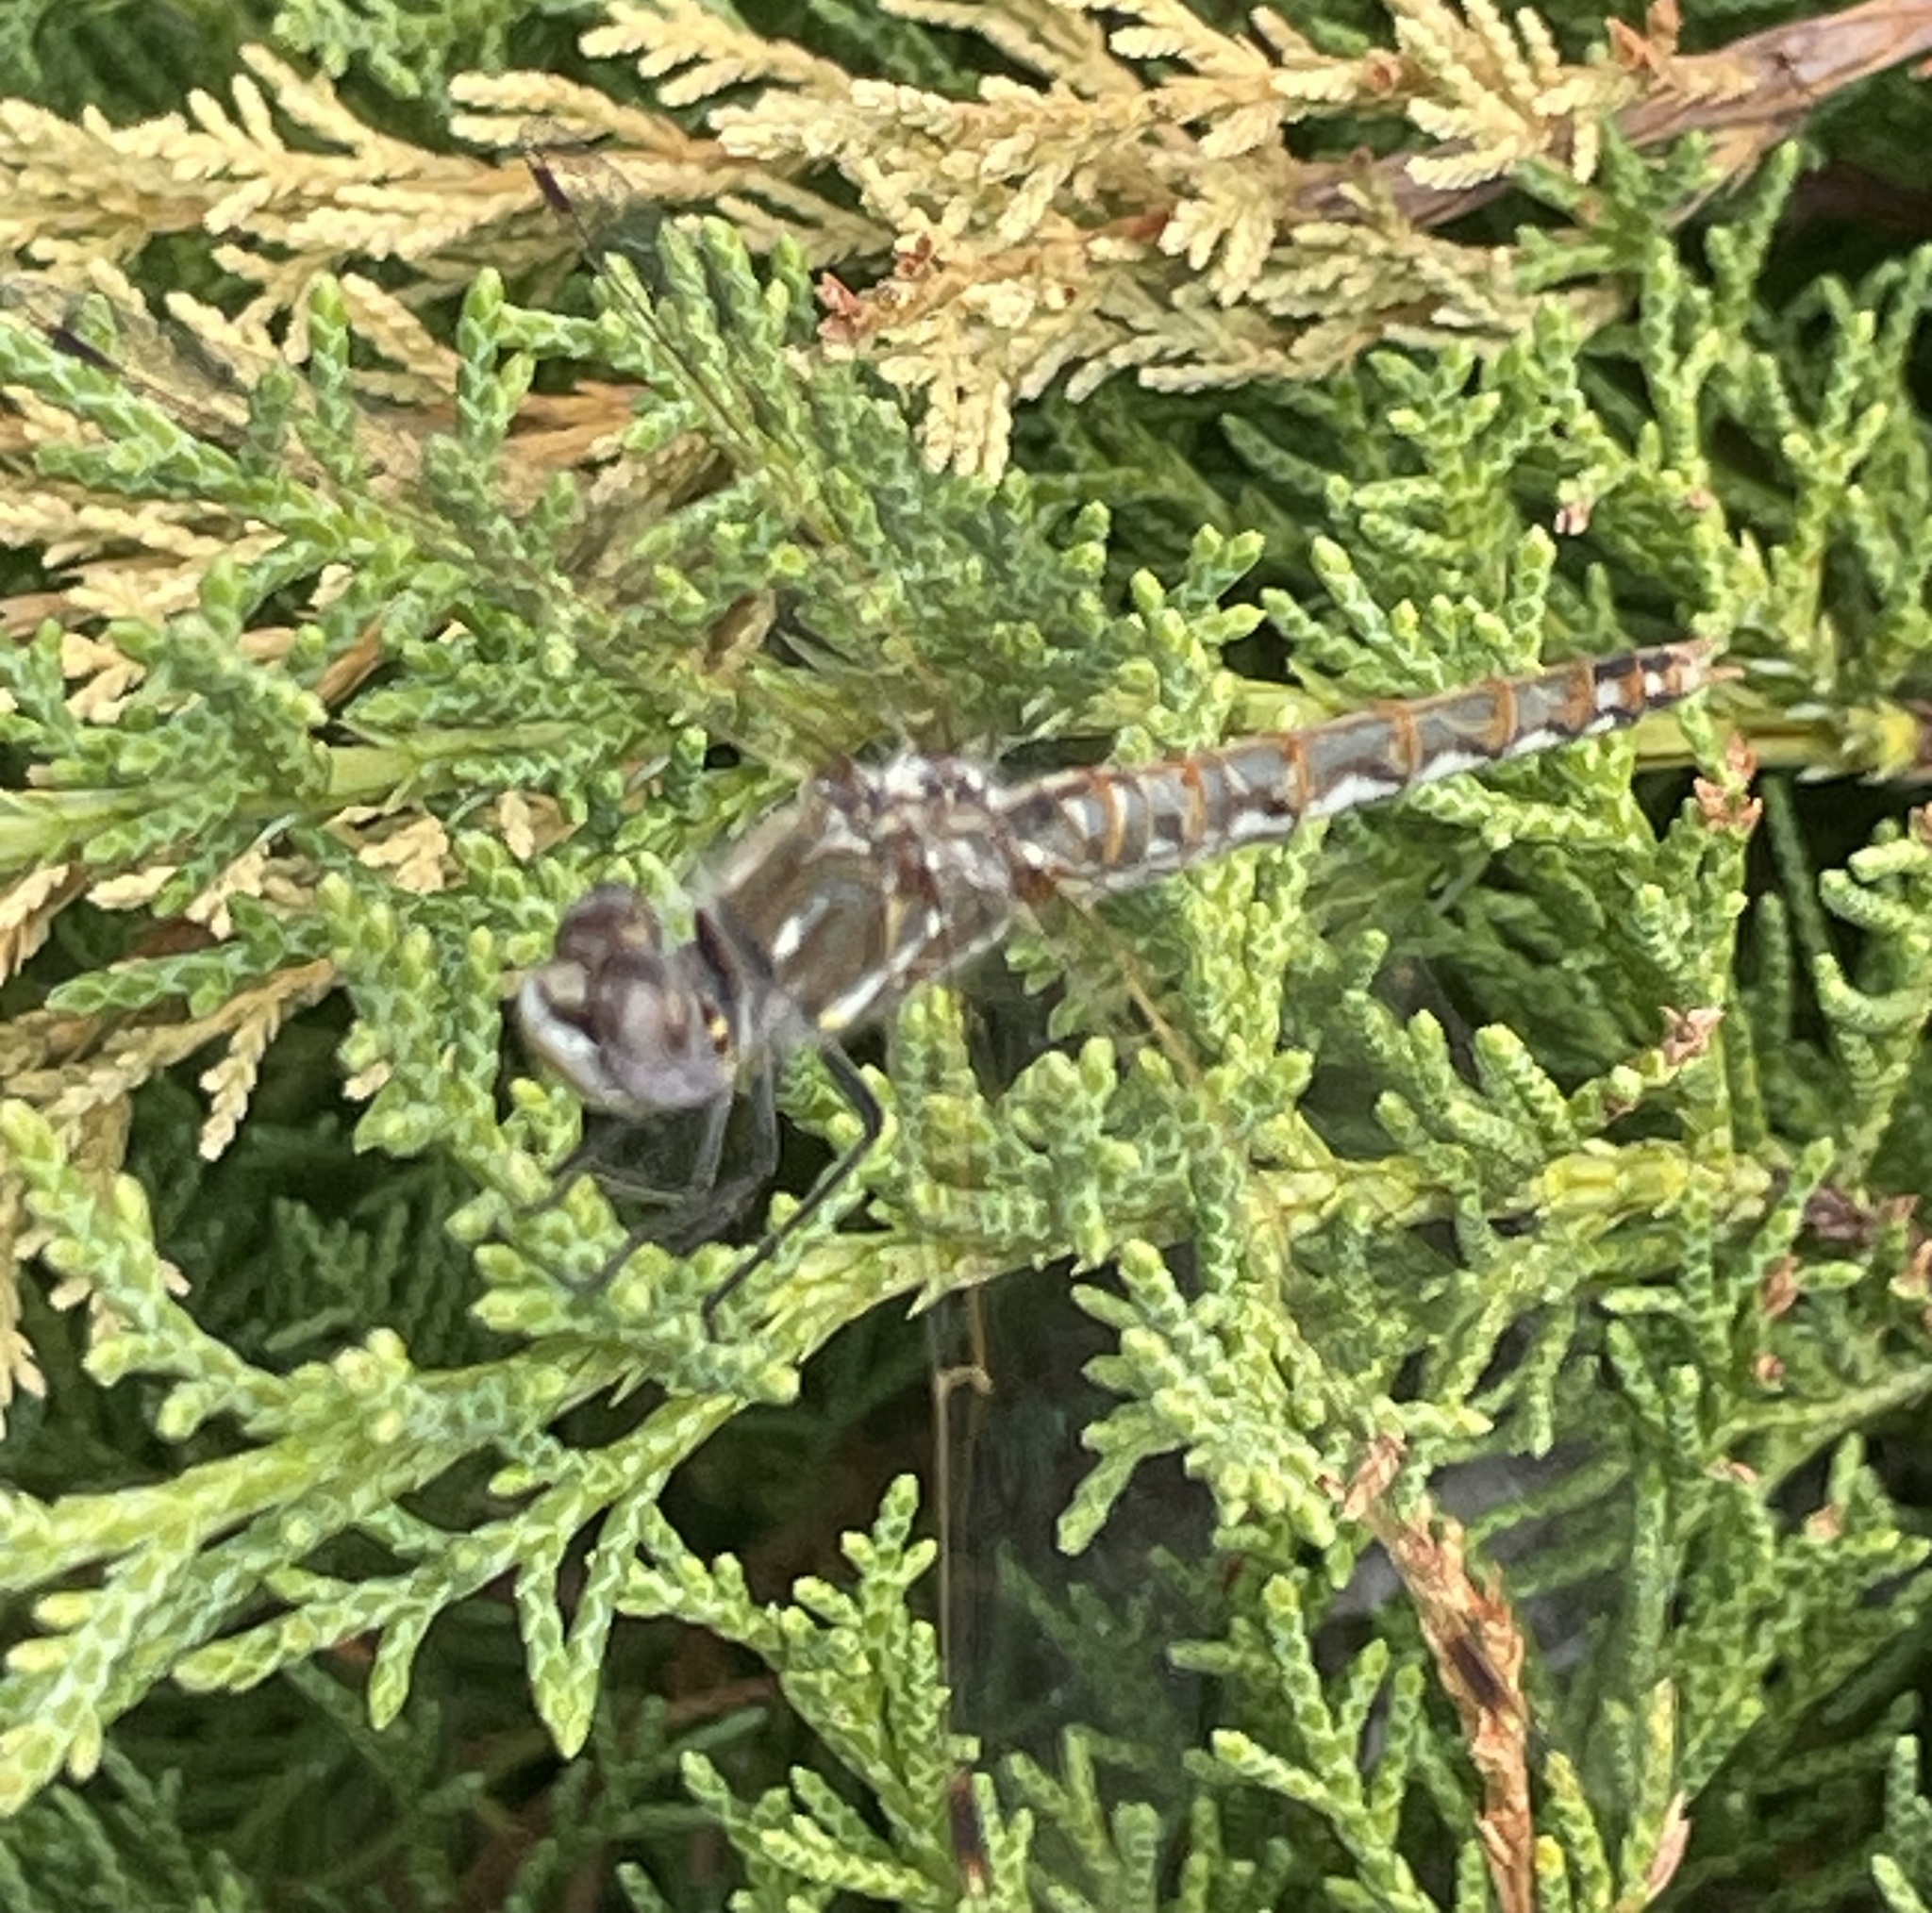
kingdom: Animalia
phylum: Arthropoda
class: Insecta
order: Odonata
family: Libellulidae
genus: Sympetrum
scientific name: Sympetrum corruptum
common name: Variegated meadowhawk
